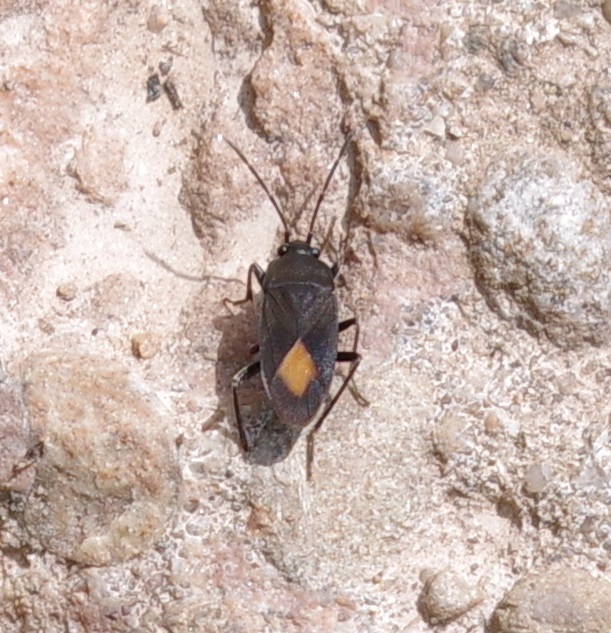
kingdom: Animalia
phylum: Arthropoda
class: Insecta
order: Hemiptera
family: Rhyparochromidae
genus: Aphanus
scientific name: Aphanus rolandri
